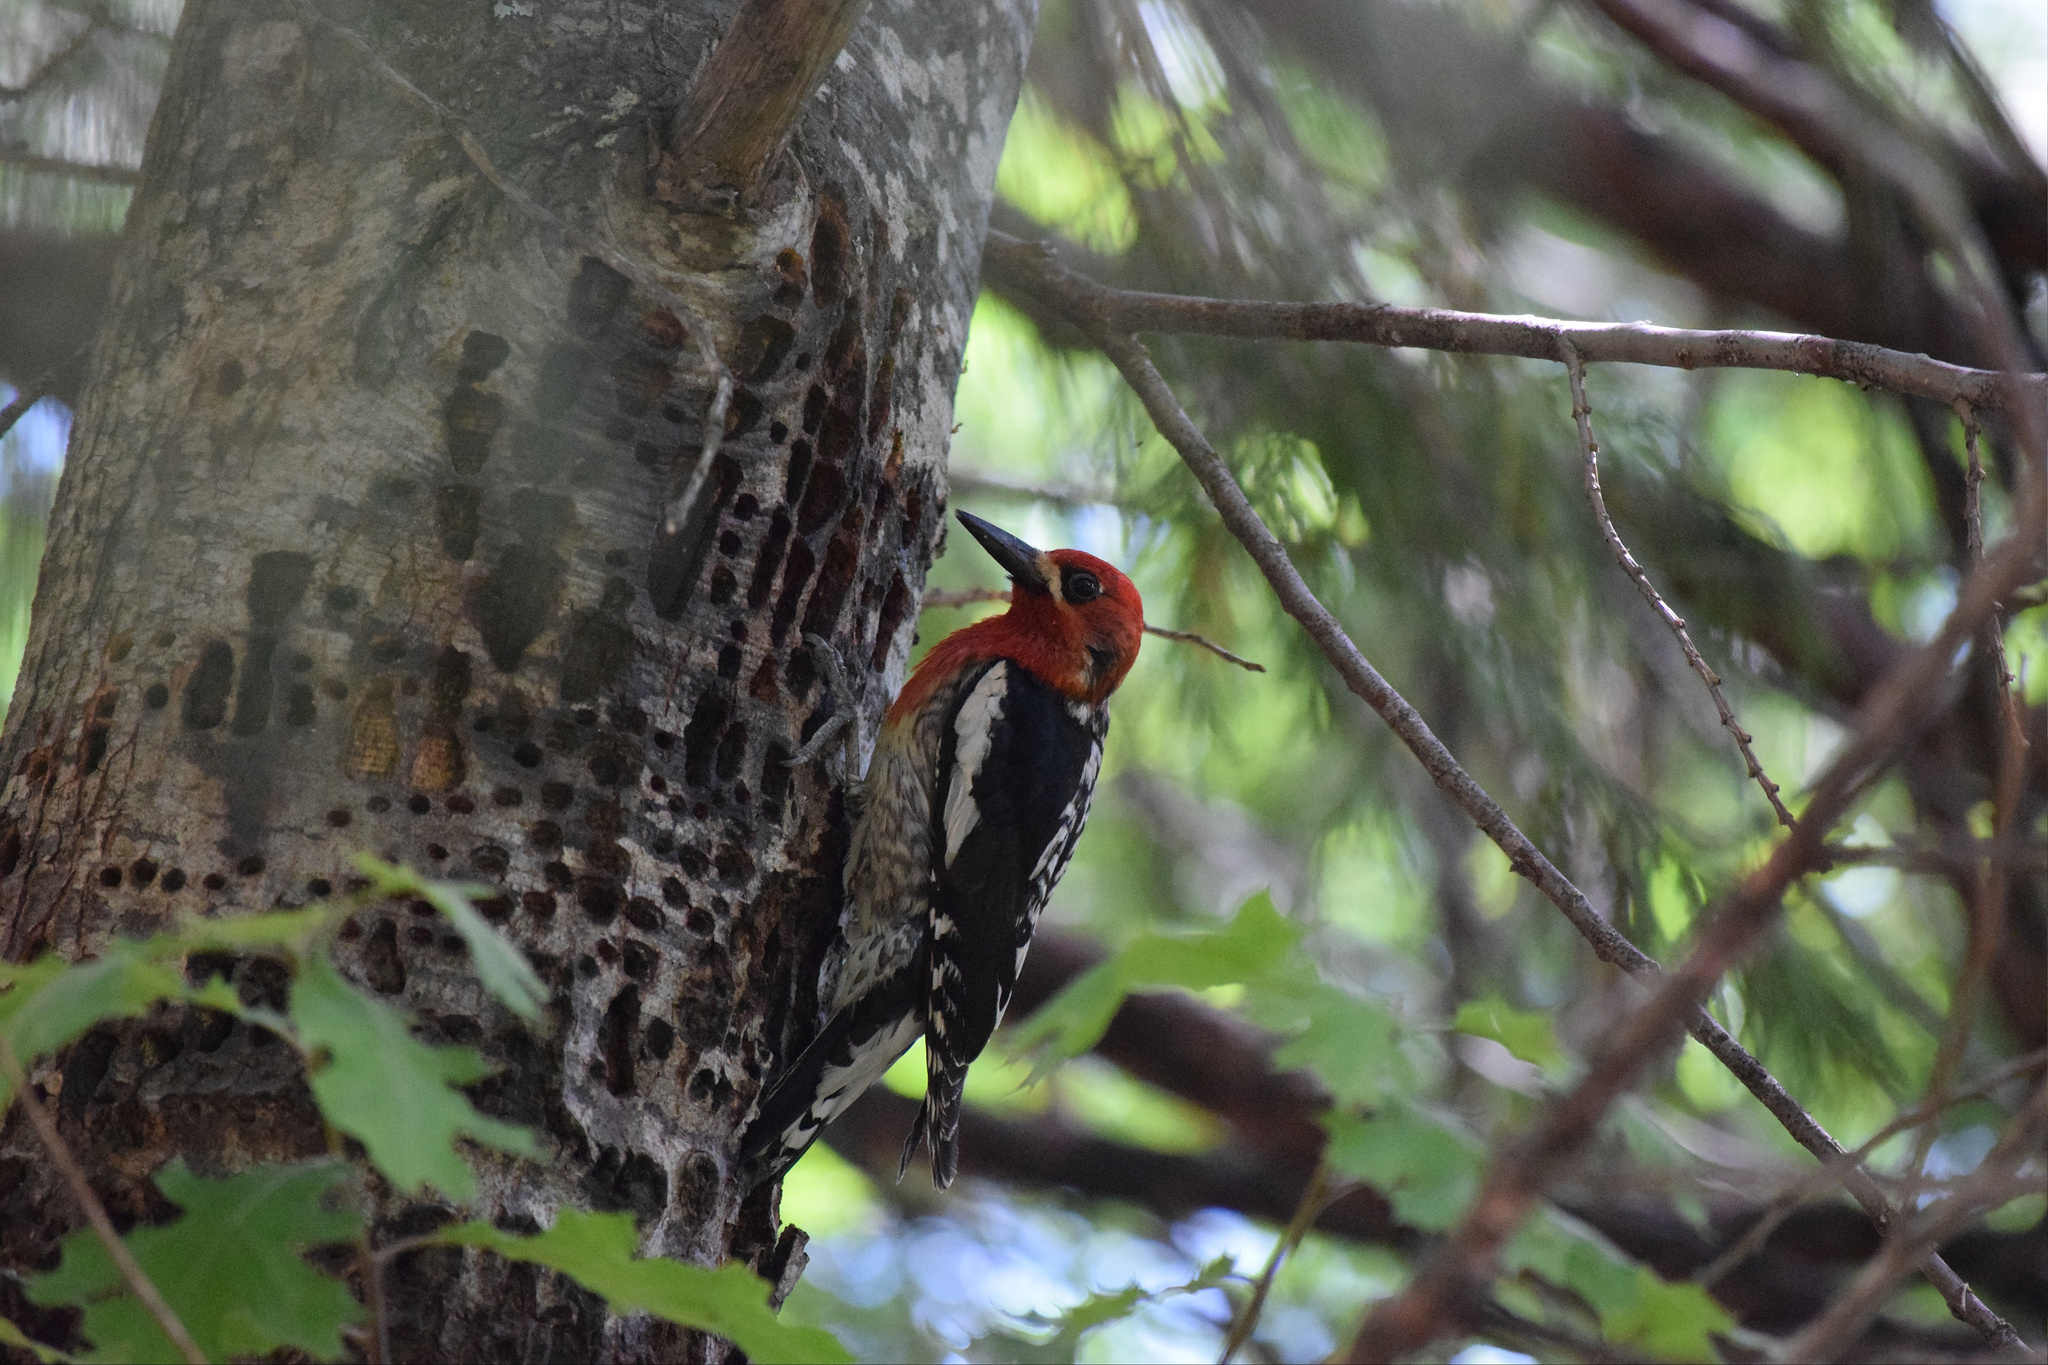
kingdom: Animalia
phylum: Chordata
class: Aves
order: Piciformes
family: Picidae
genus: Sphyrapicus
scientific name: Sphyrapicus ruber
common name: Red-breasted sapsucker
